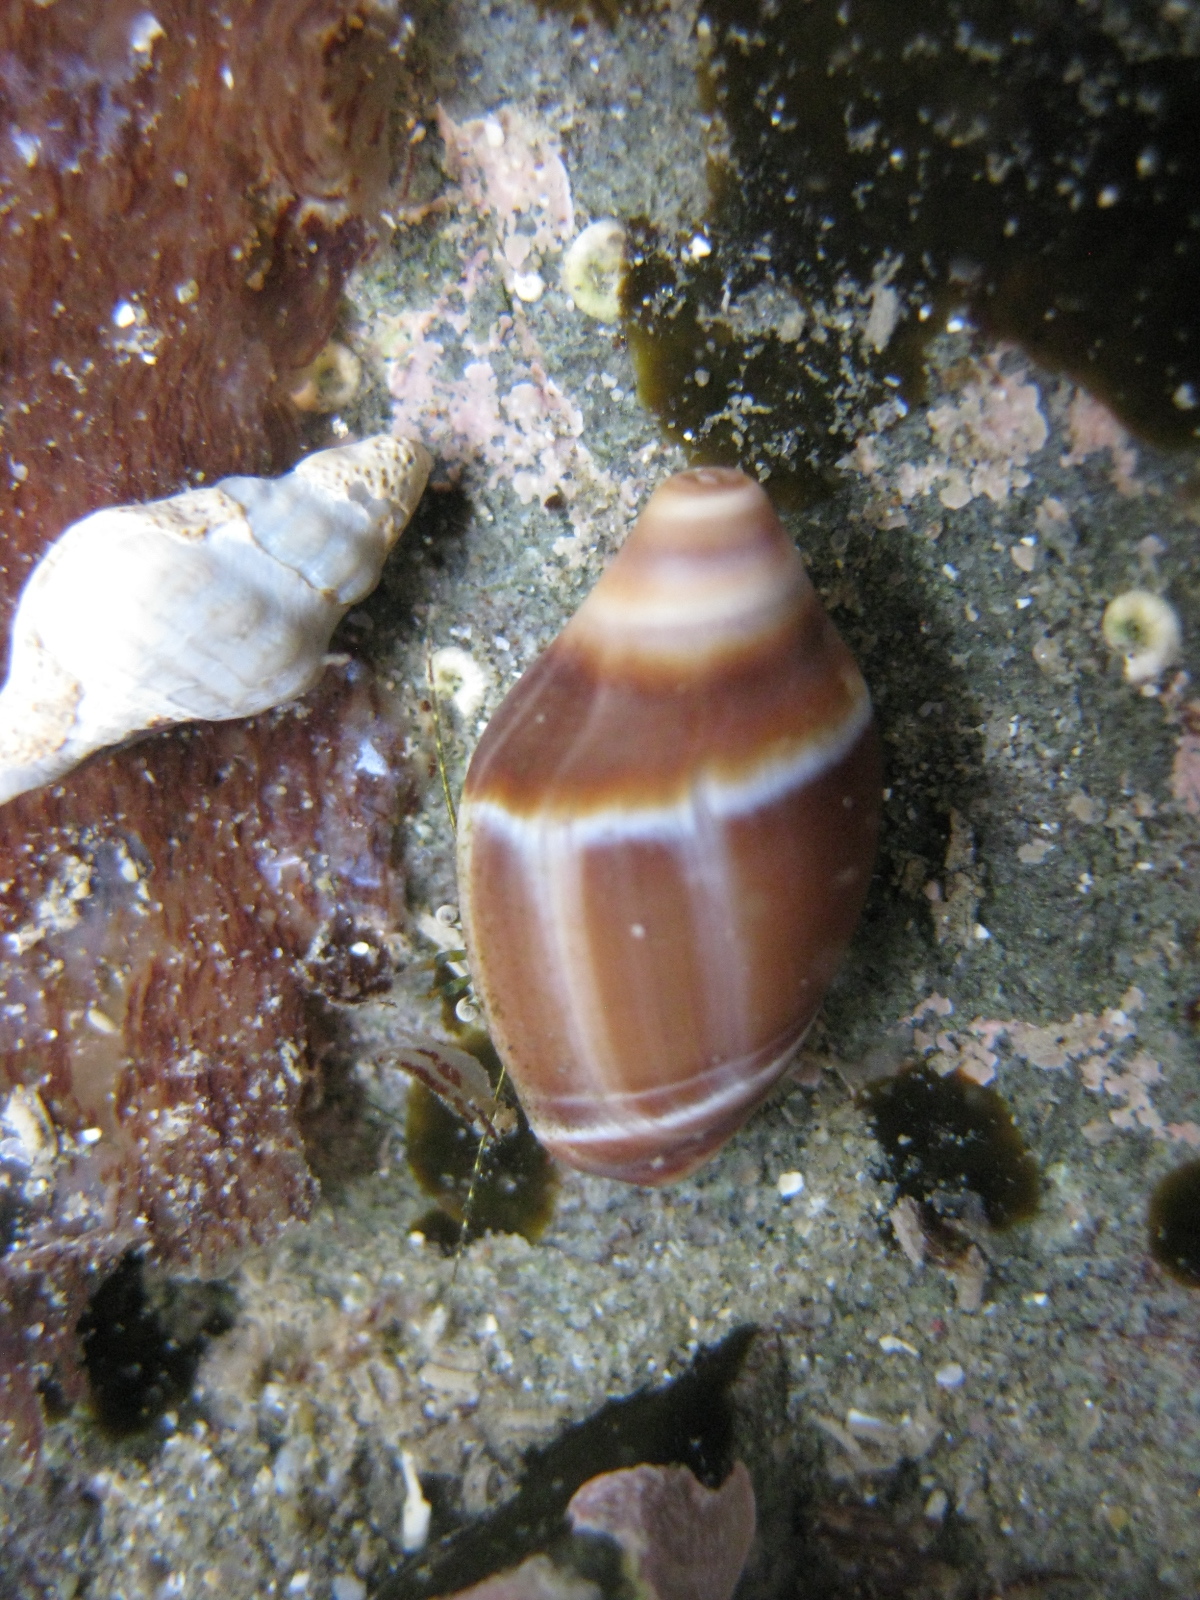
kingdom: Animalia
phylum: Mollusca
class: Gastropoda
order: Neogastropoda
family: Ancillariidae
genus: Amalda
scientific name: Amalda australis
